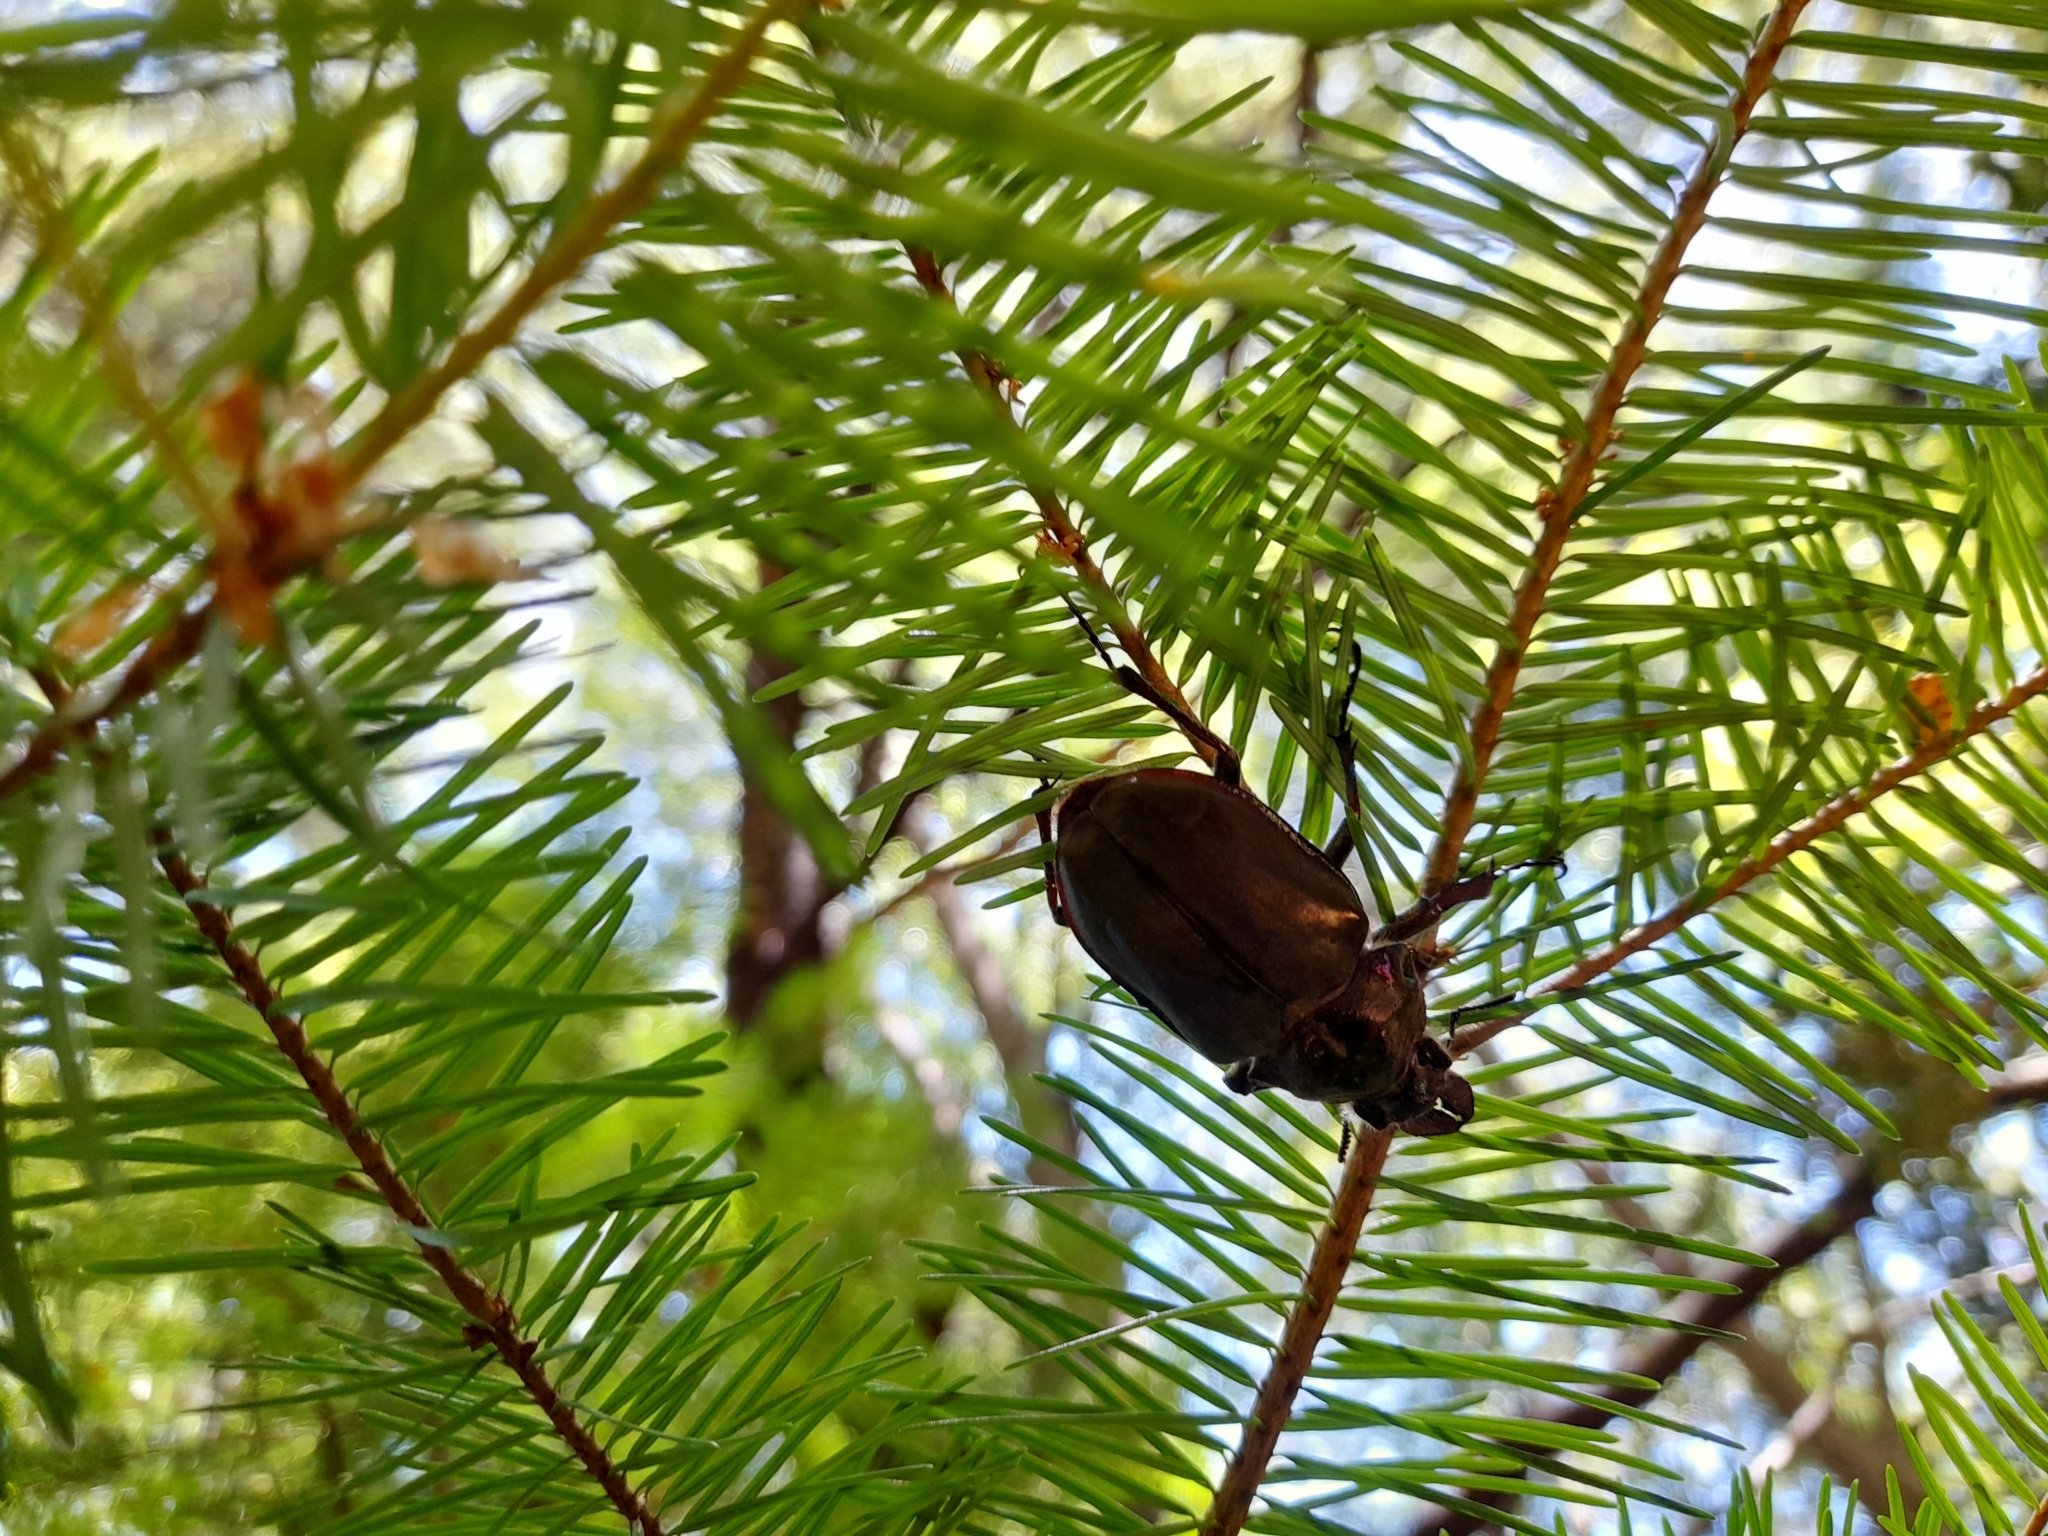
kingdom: Animalia
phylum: Arthropoda
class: Insecta
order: Coleoptera
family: Lucanidae
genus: Chiasognathus
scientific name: Chiasognathus grantii
